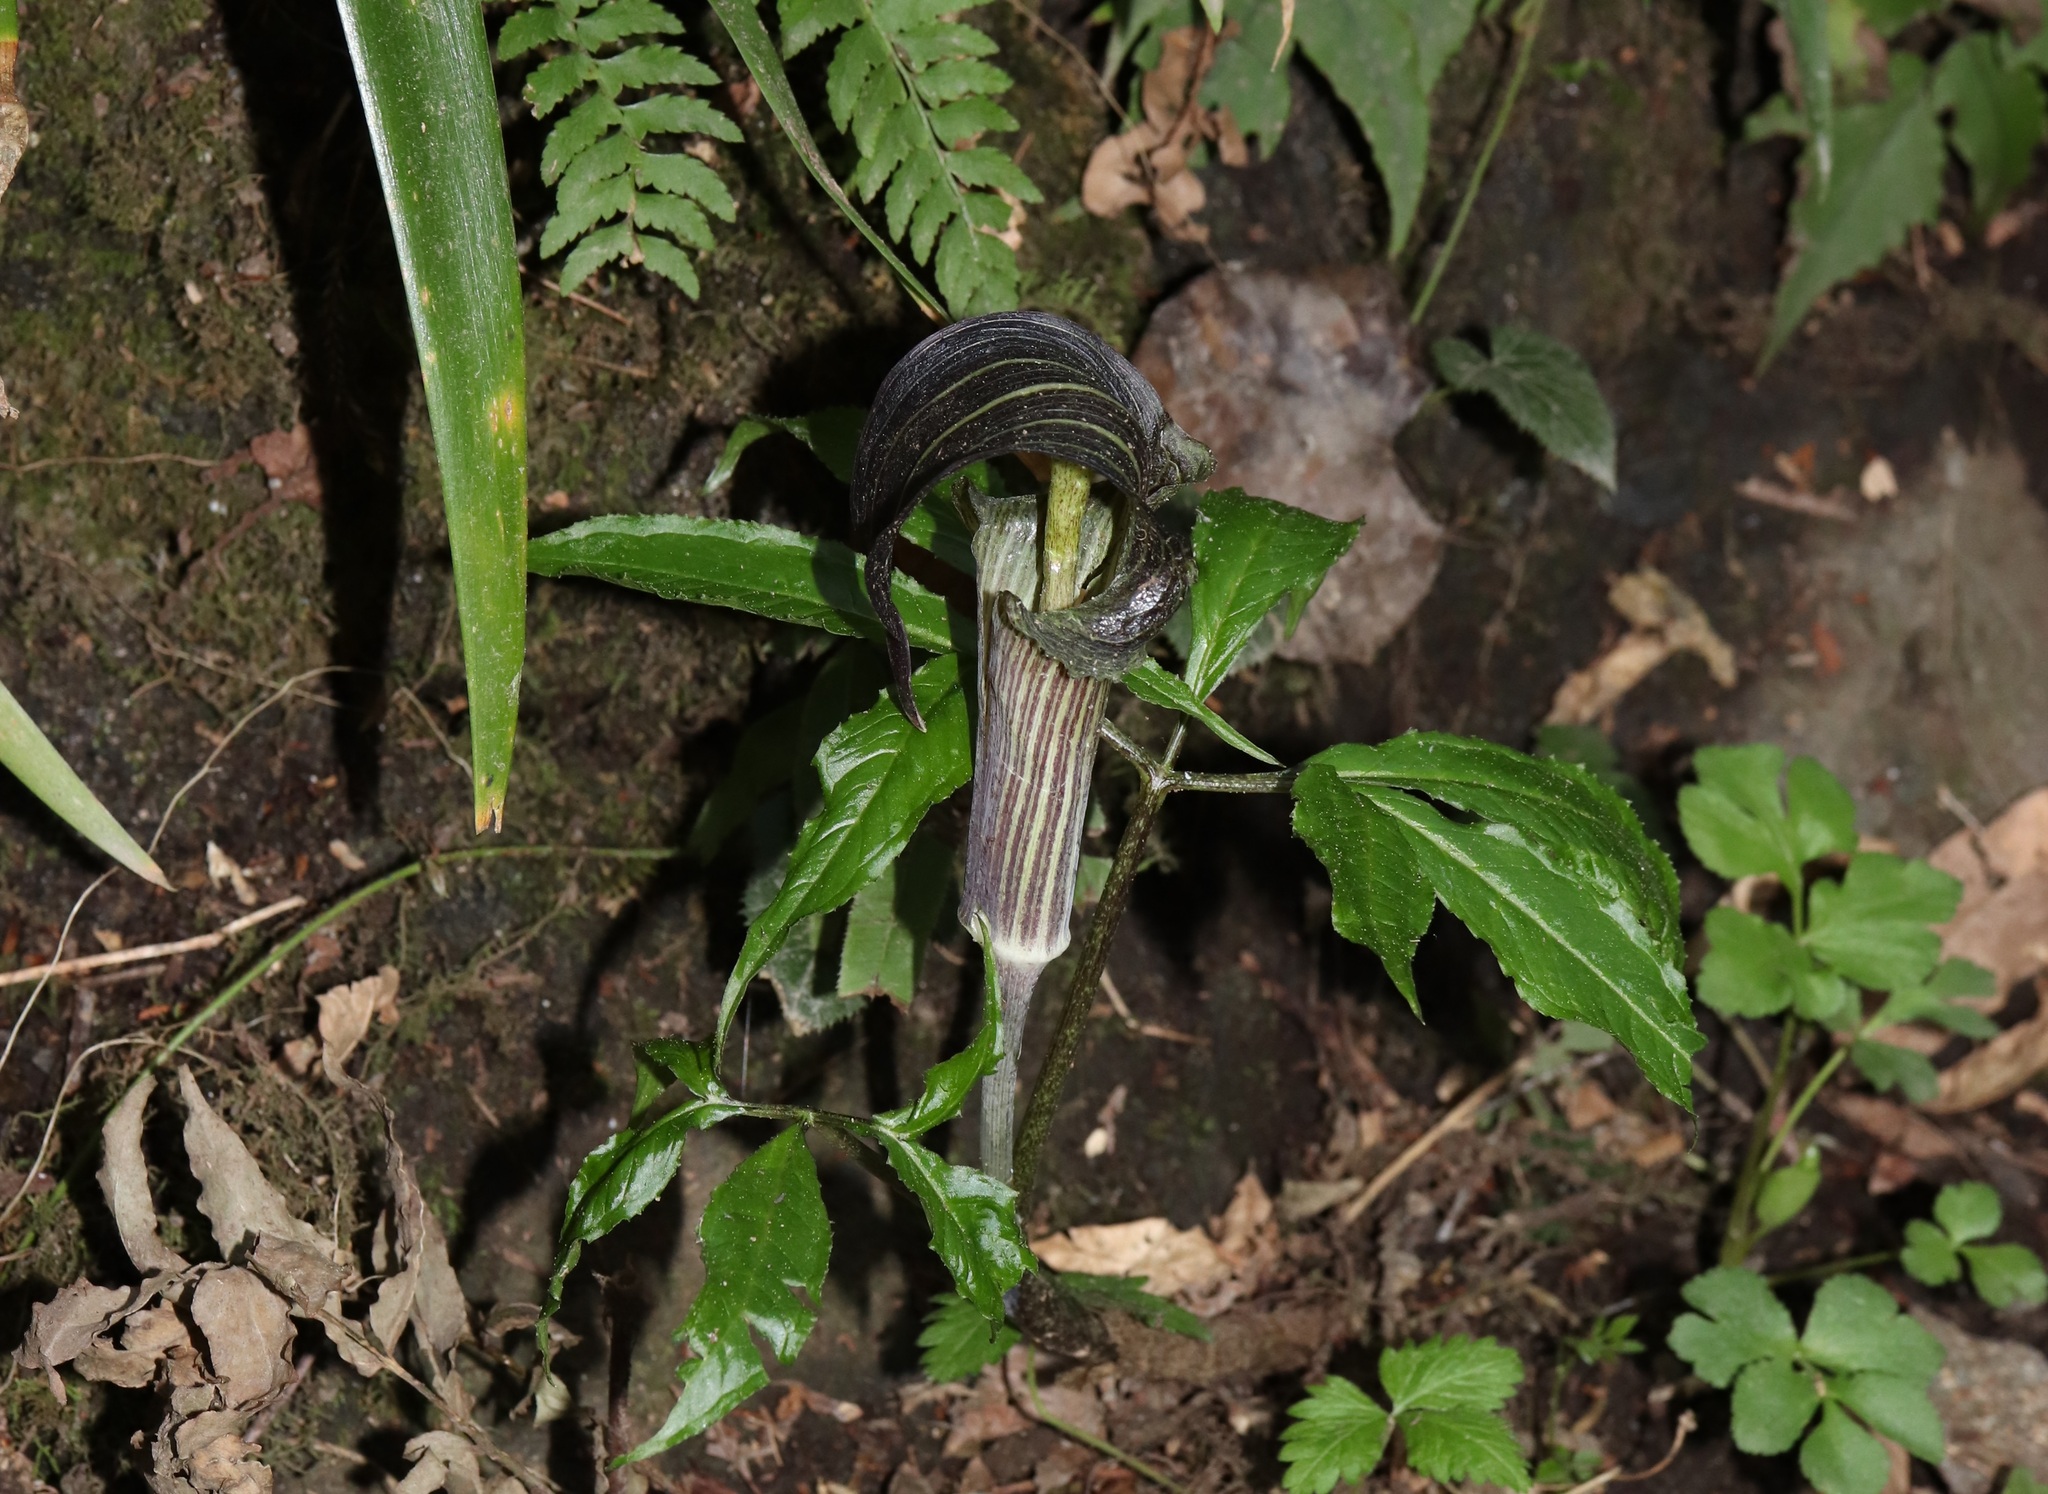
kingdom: Plantae
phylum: Tracheophyta
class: Liliopsida
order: Alismatales
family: Araceae
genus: Arisaema
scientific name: Arisaema limbatum
